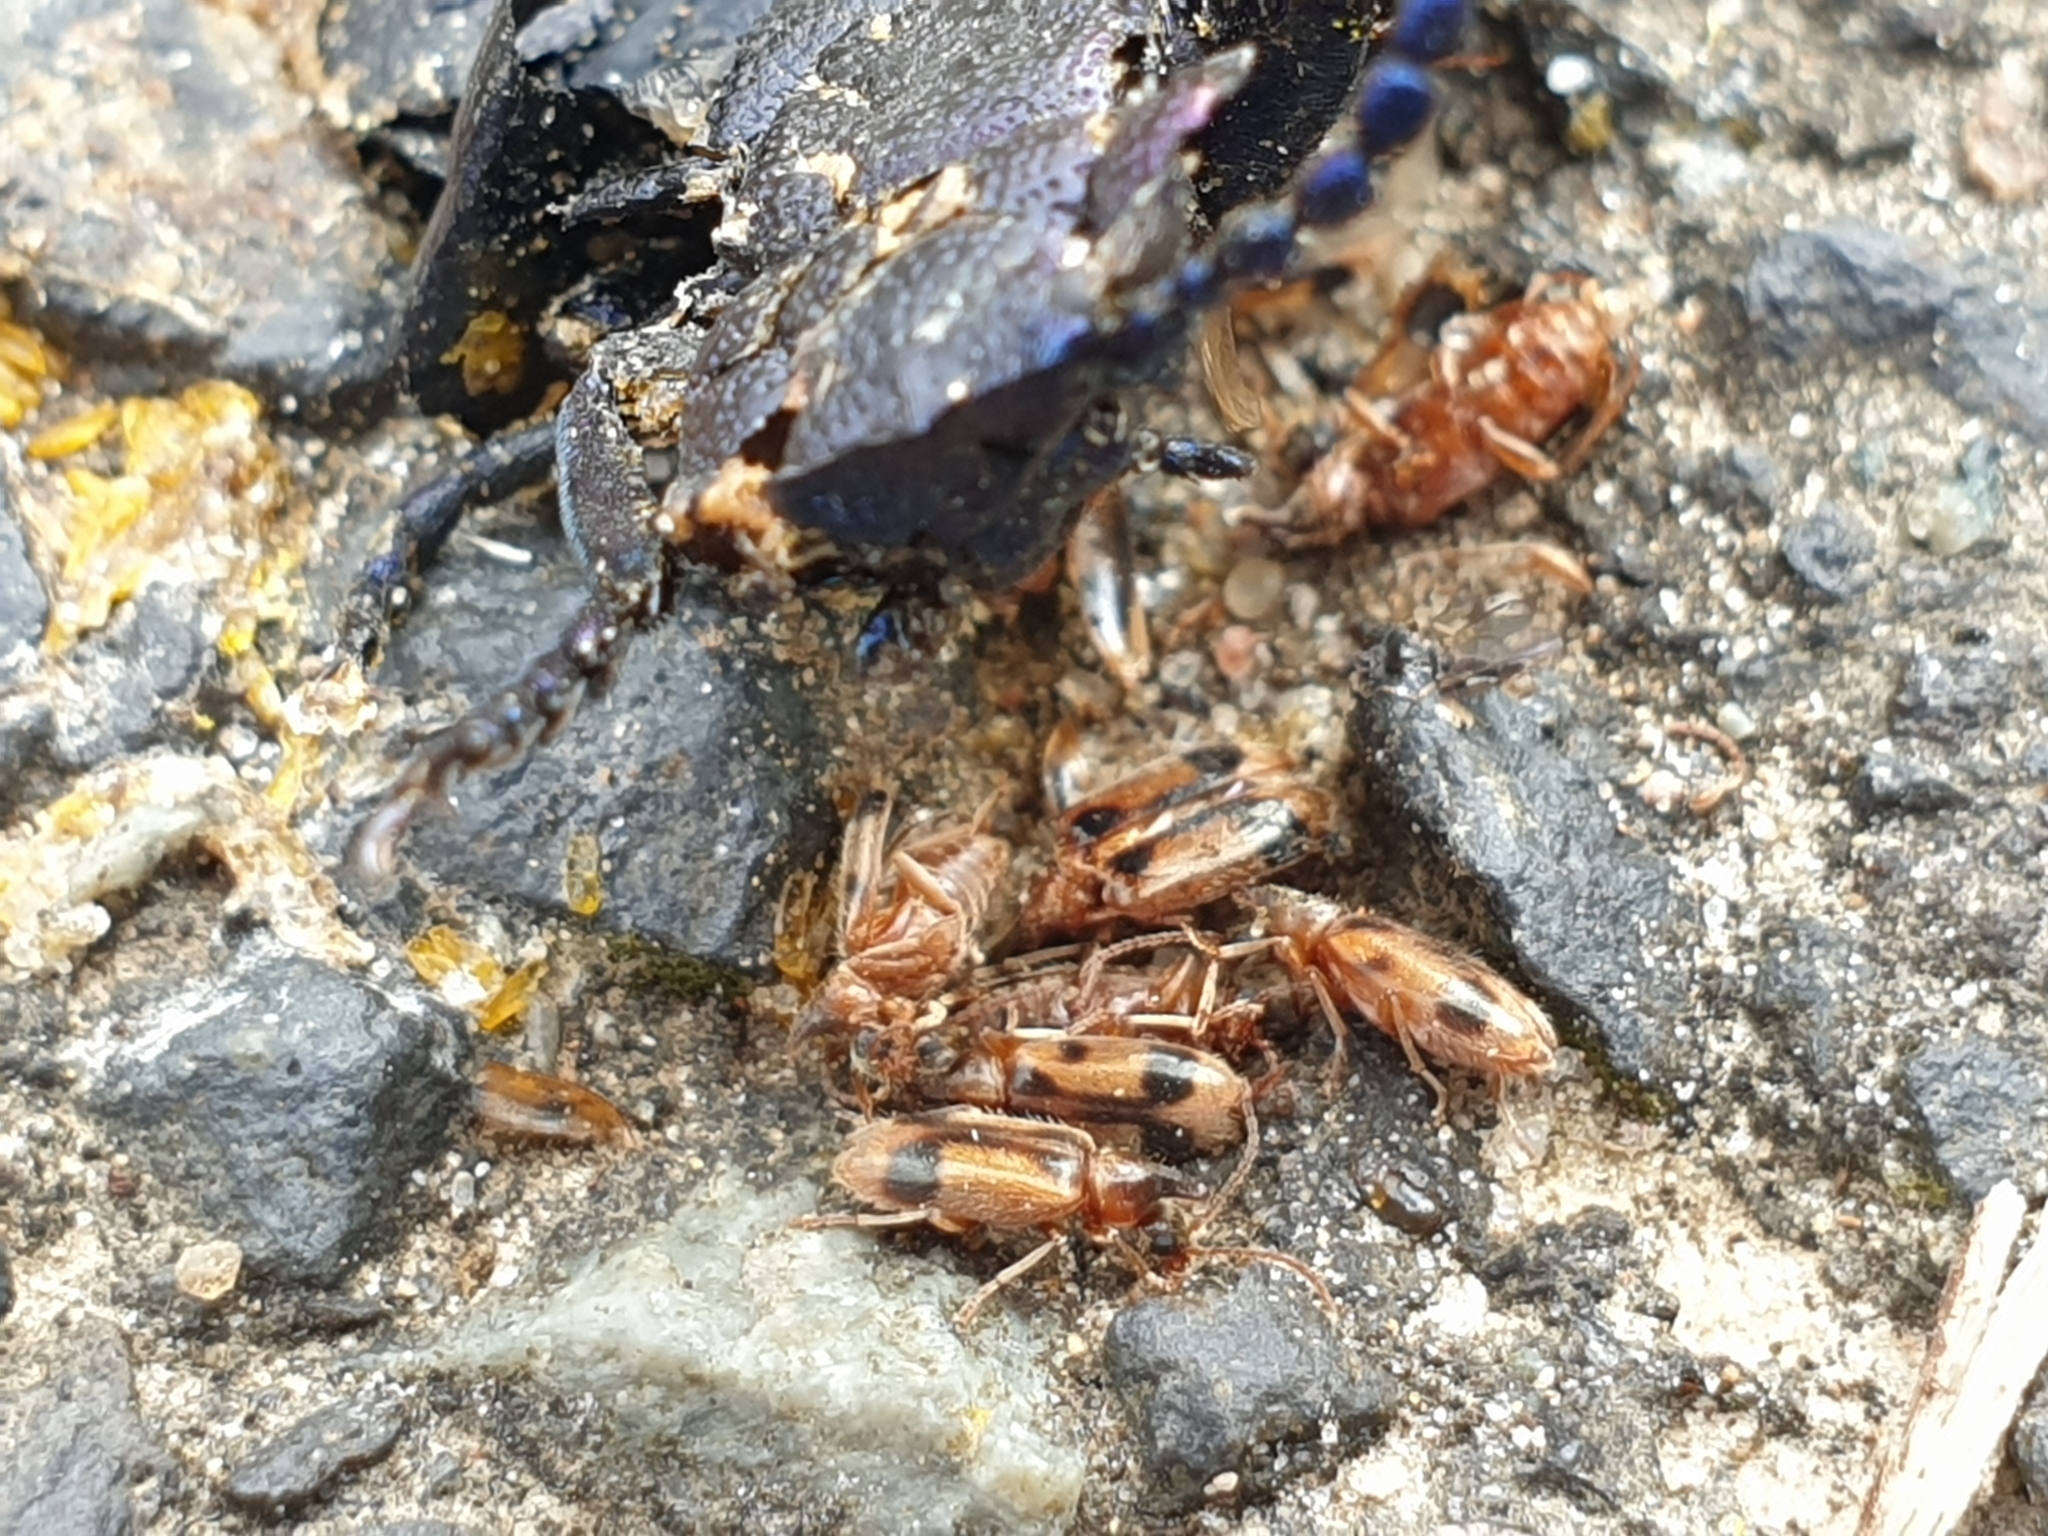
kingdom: Animalia
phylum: Arthropoda
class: Insecta
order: Coleoptera
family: Anthicidae
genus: Notoxus
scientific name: Notoxus monoceros
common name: Monoceros beetle
